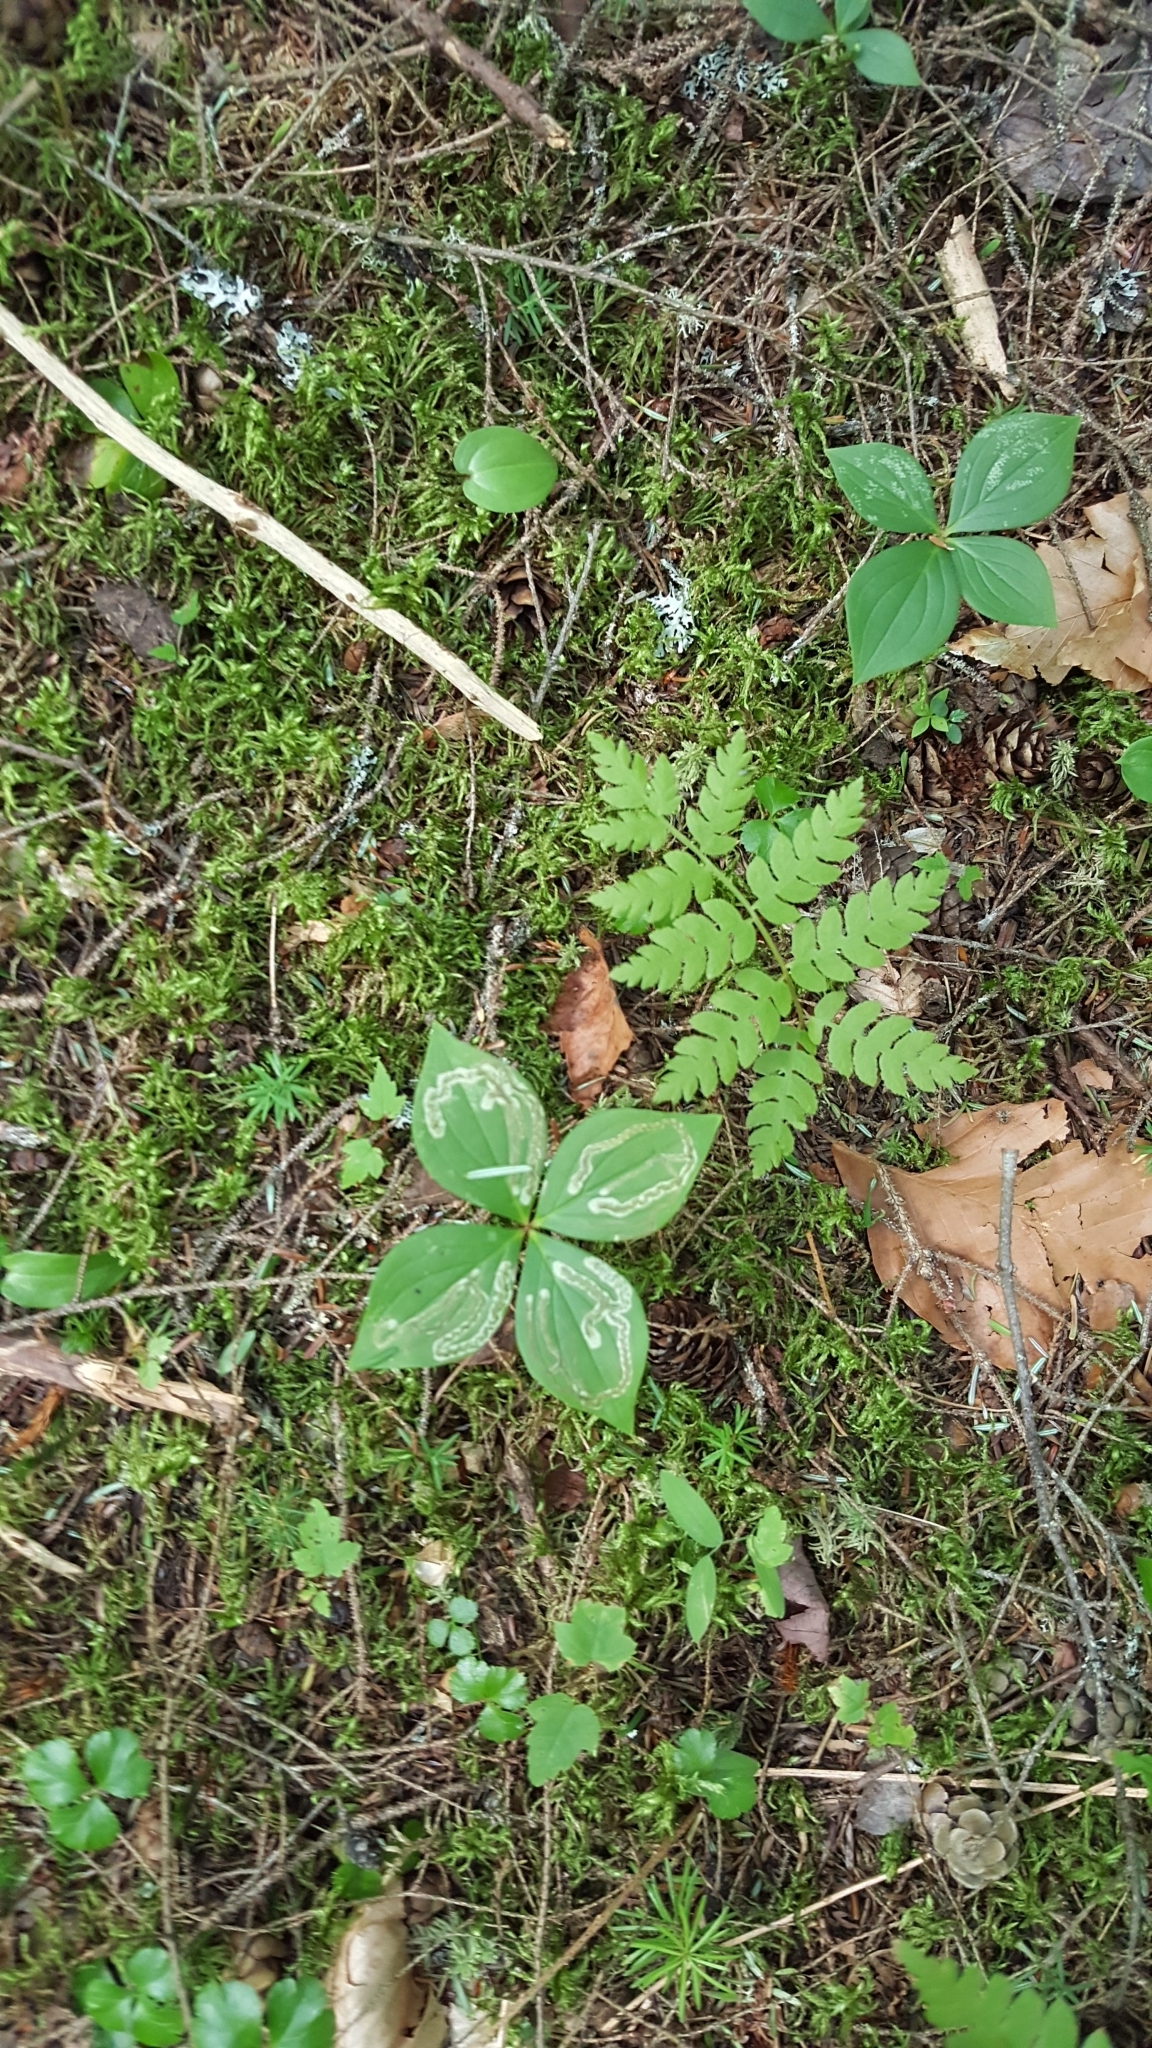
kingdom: Plantae
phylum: Tracheophyta
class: Magnoliopsida
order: Cornales
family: Cornaceae
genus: Cornus
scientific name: Cornus canadensis
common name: Creeping dogwood
